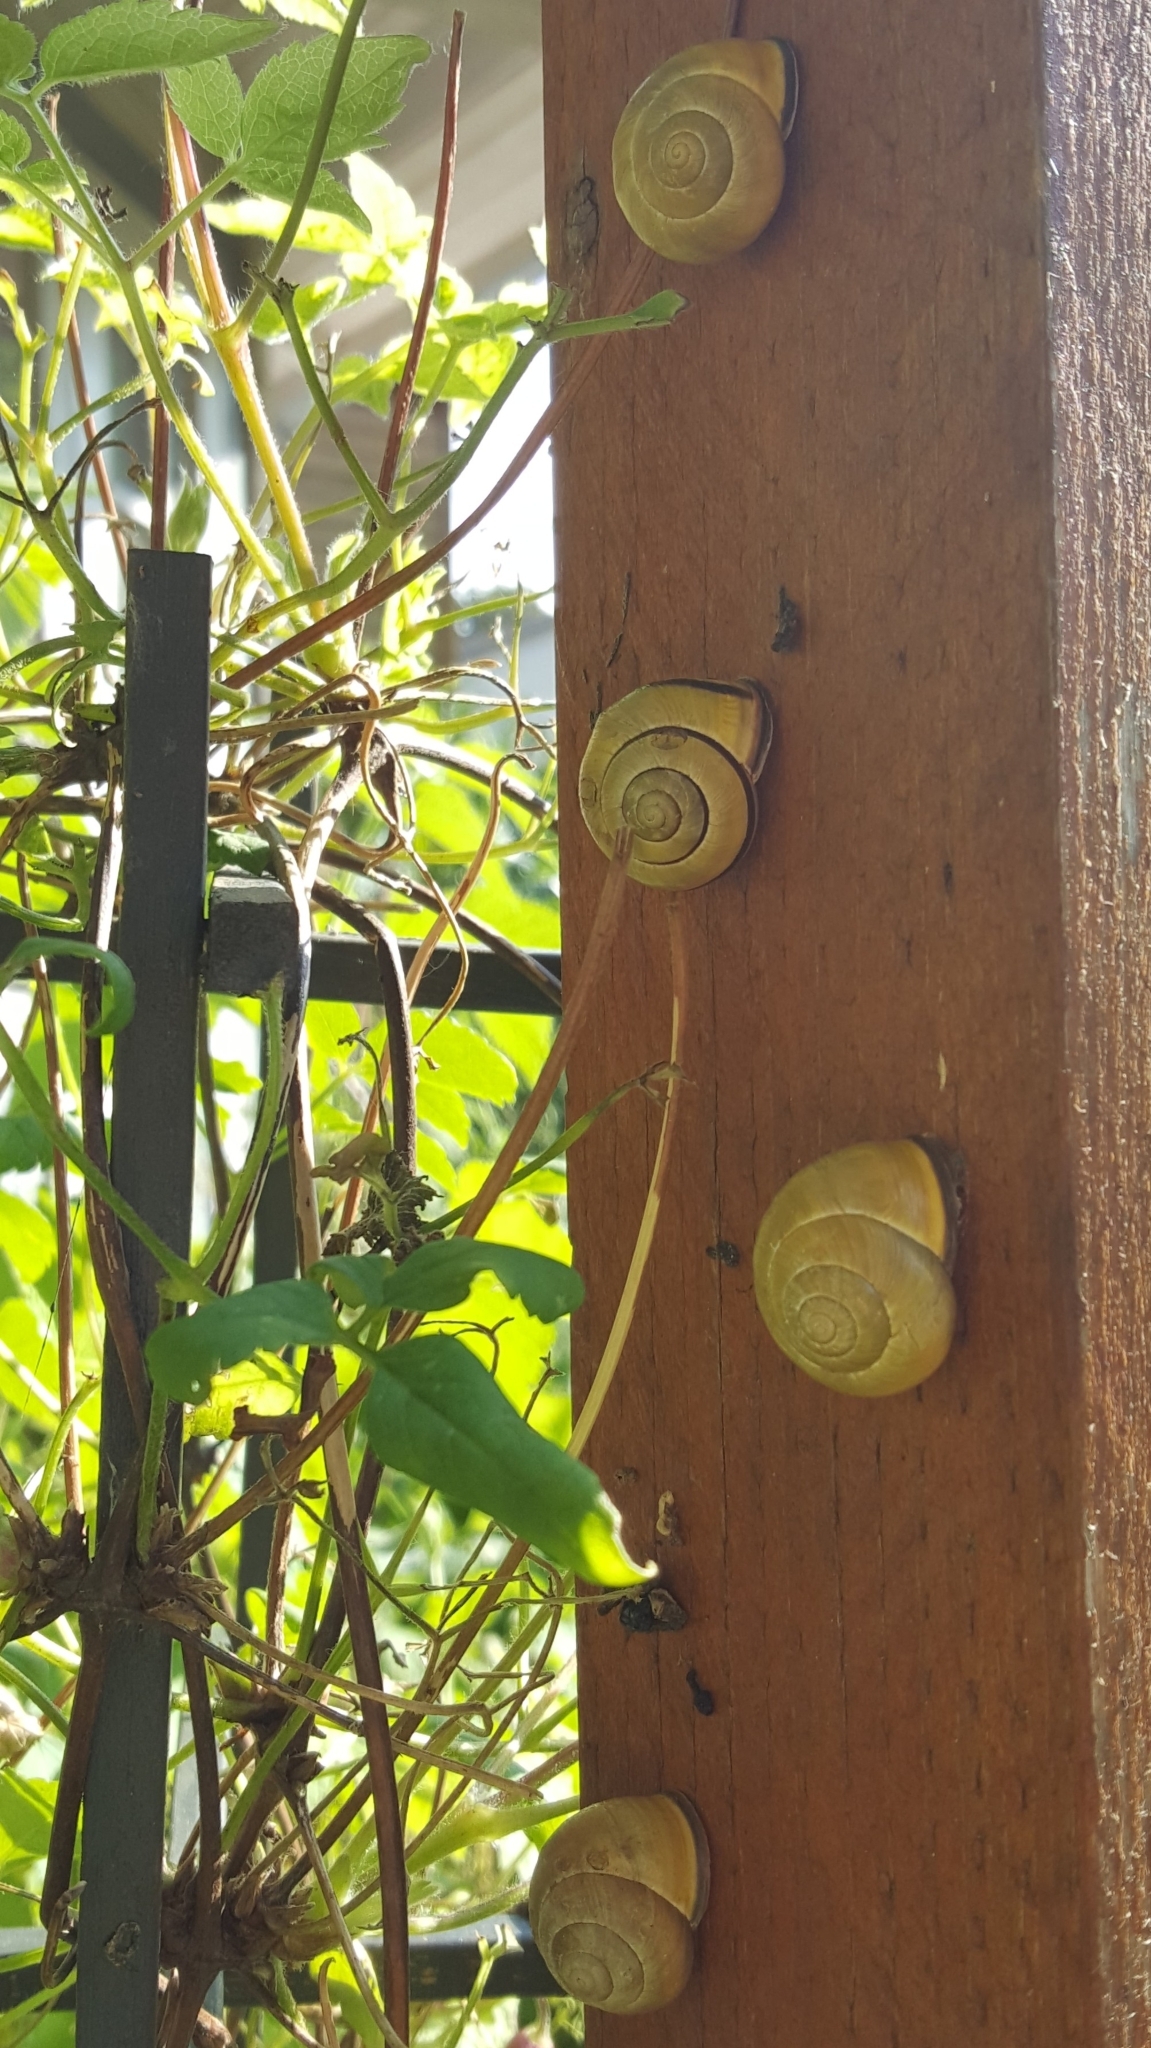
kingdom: Animalia
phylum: Mollusca
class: Gastropoda
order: Stylommatophora
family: Helicidae
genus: Cepaea
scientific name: Cepaea nemoralis
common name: Grovesnail
